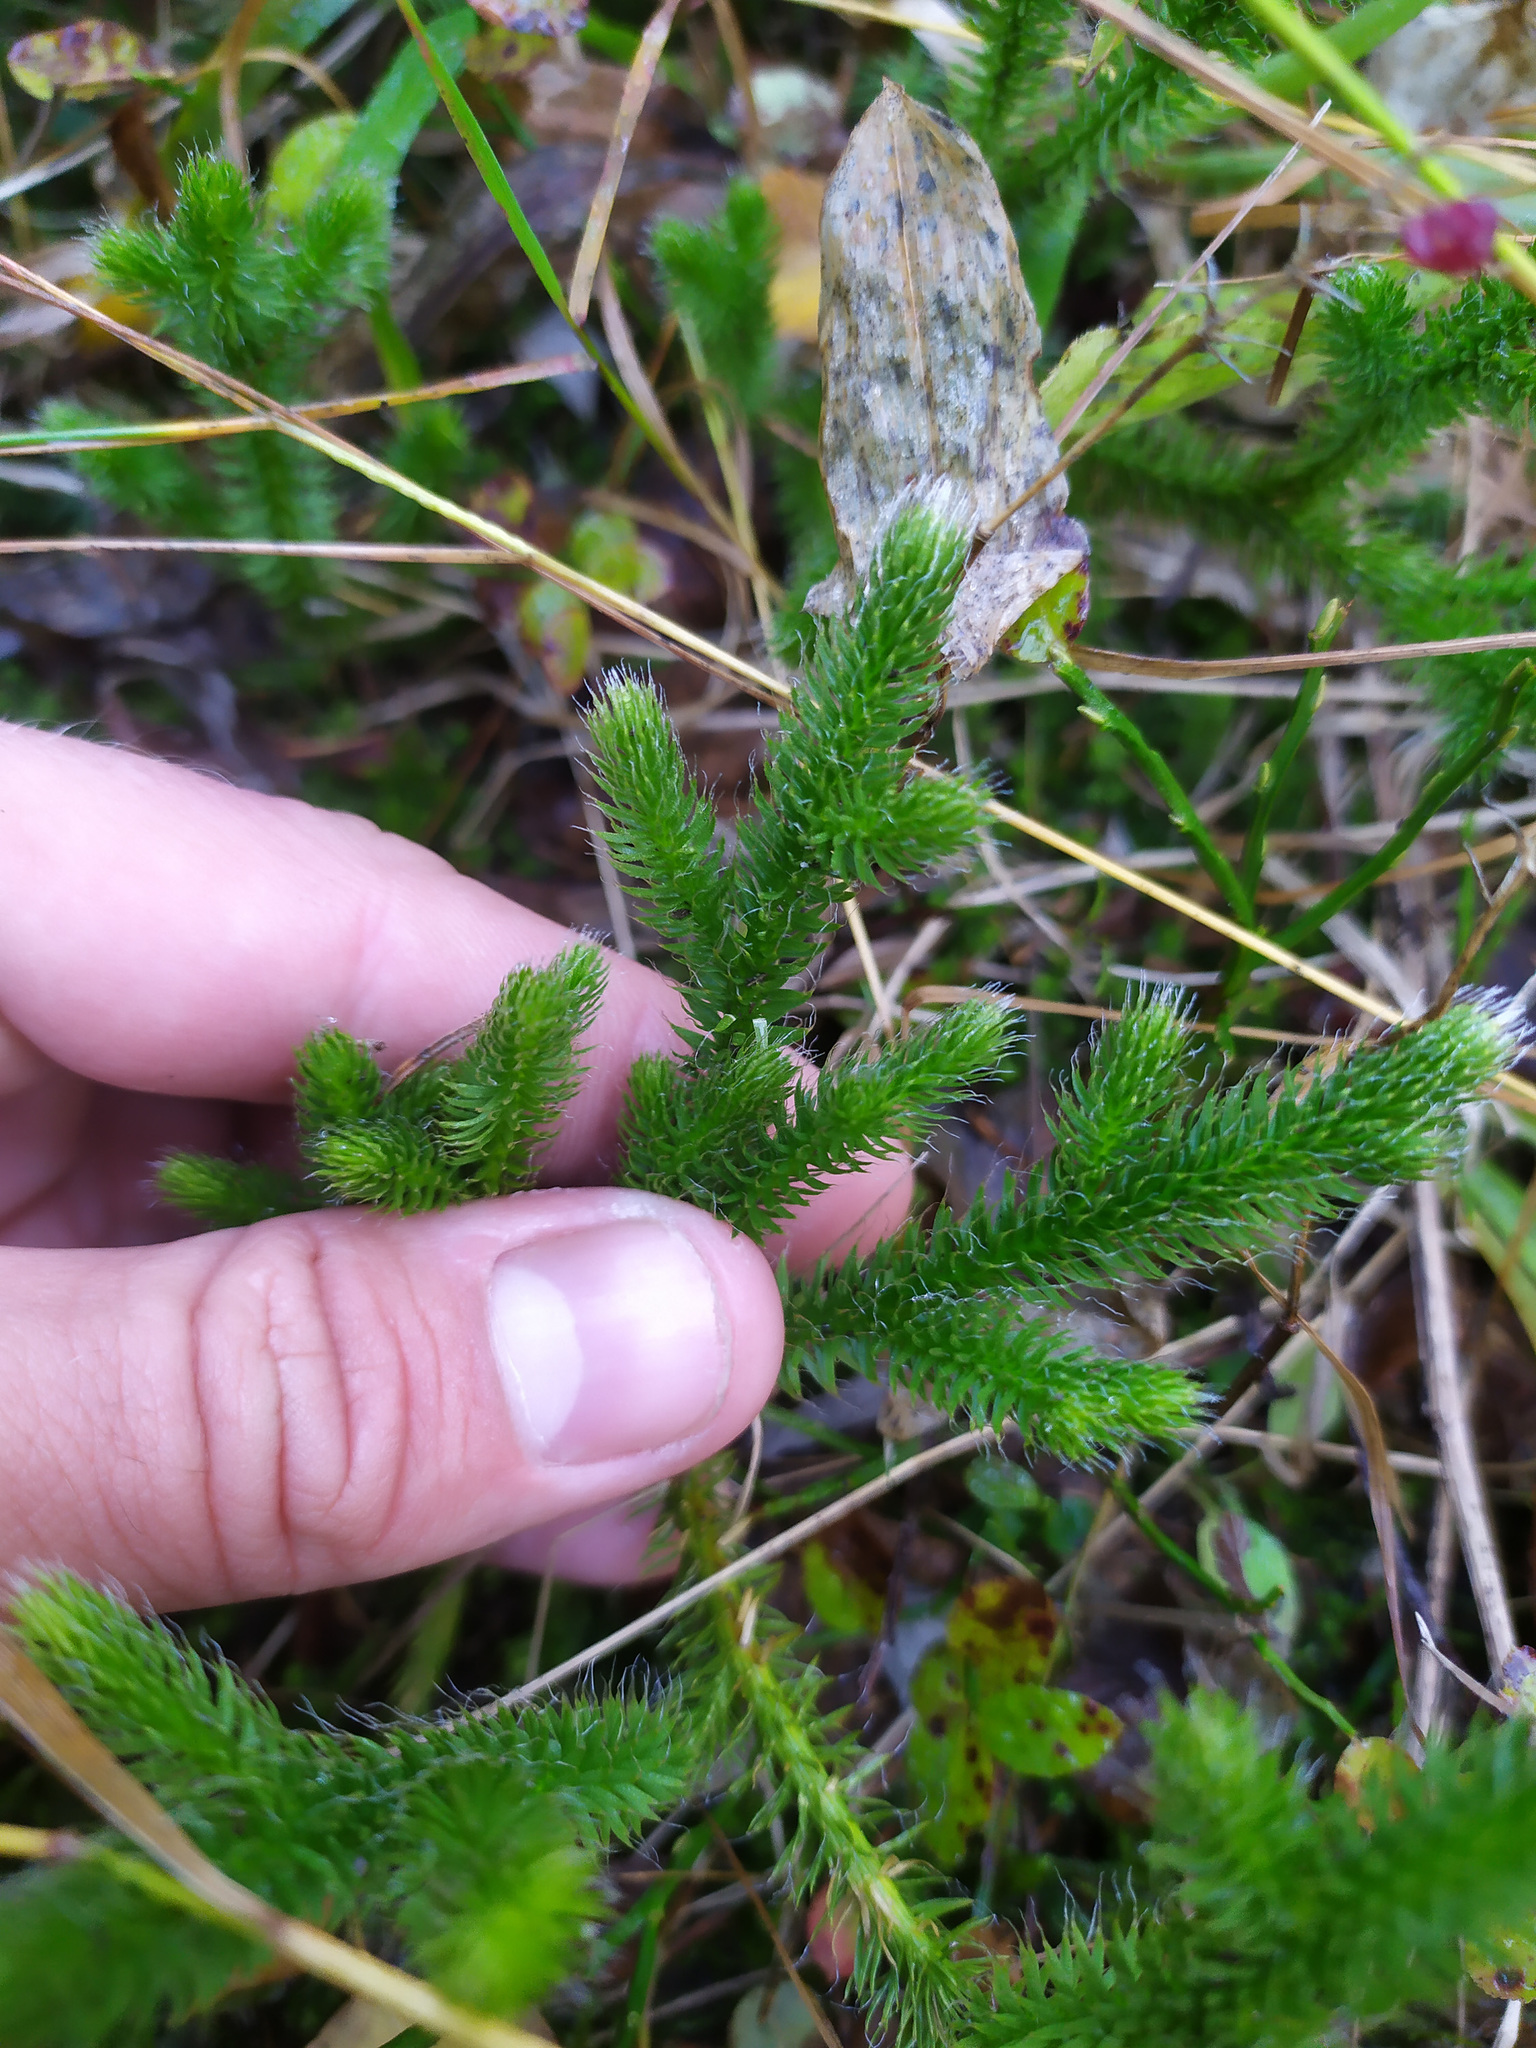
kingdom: Plantae
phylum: Tracheophyta
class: Lycopodiopsida
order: Lycopodiales
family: Lycopodiaceae
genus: Lycopodium
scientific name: Lycopodium clavatum
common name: Stag's-horn clubmoss
